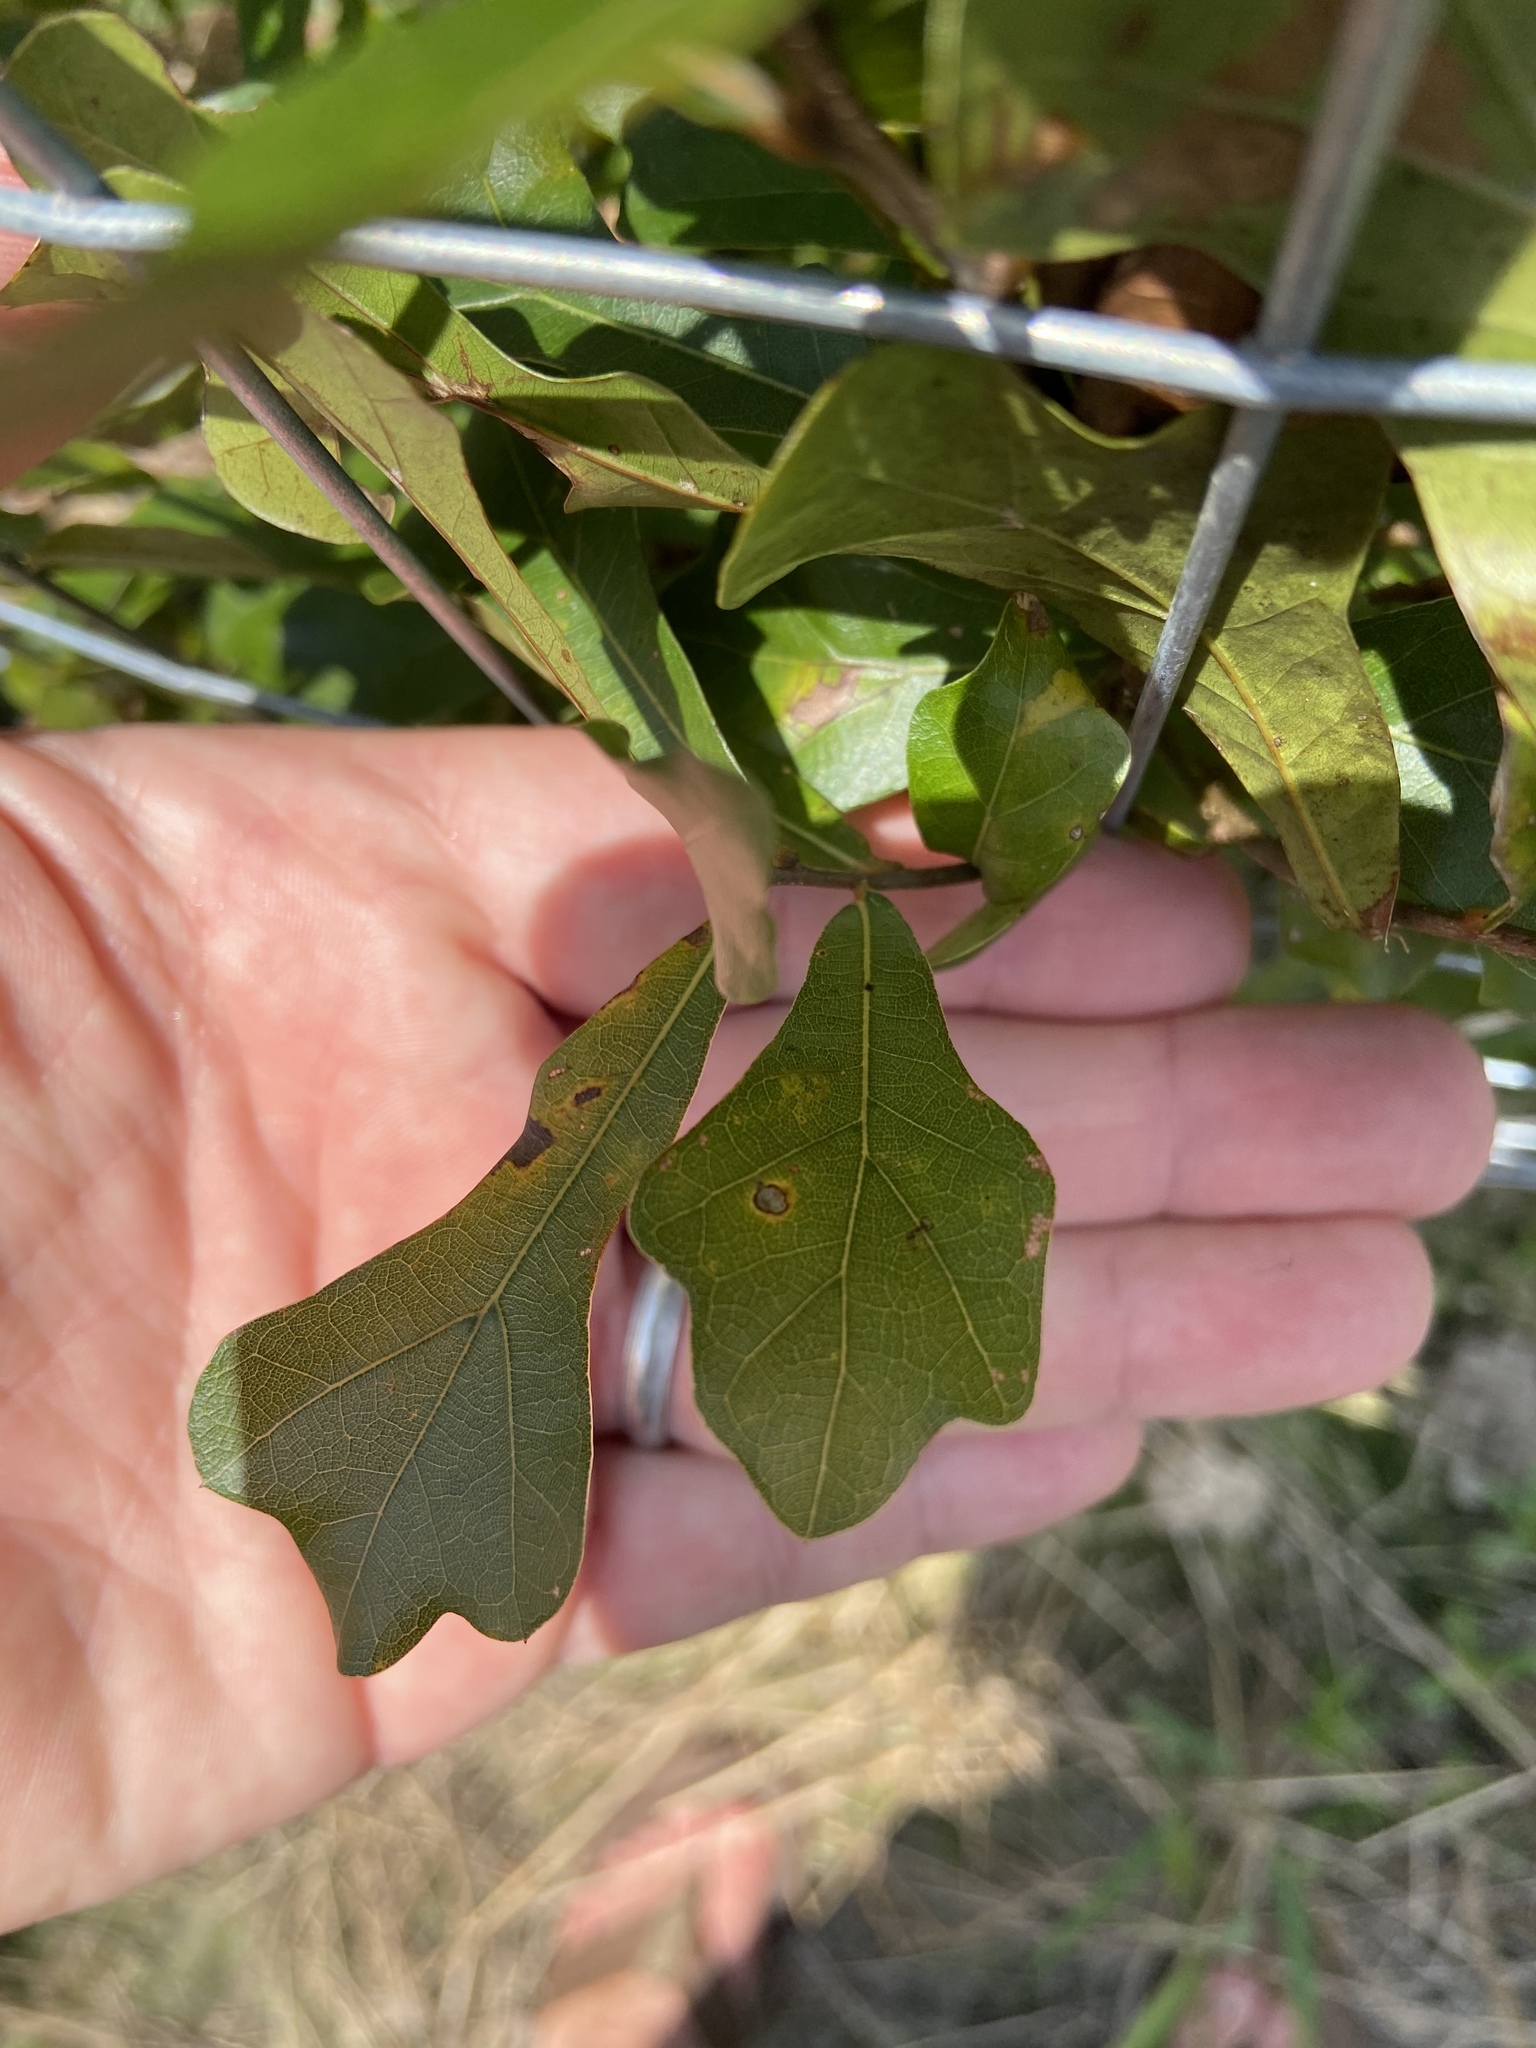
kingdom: Plantae
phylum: Tracheophyta
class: Magnoliopsida
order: Fagales
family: Fagaceae
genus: Quercus
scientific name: Quercus nigra
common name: Water oak
